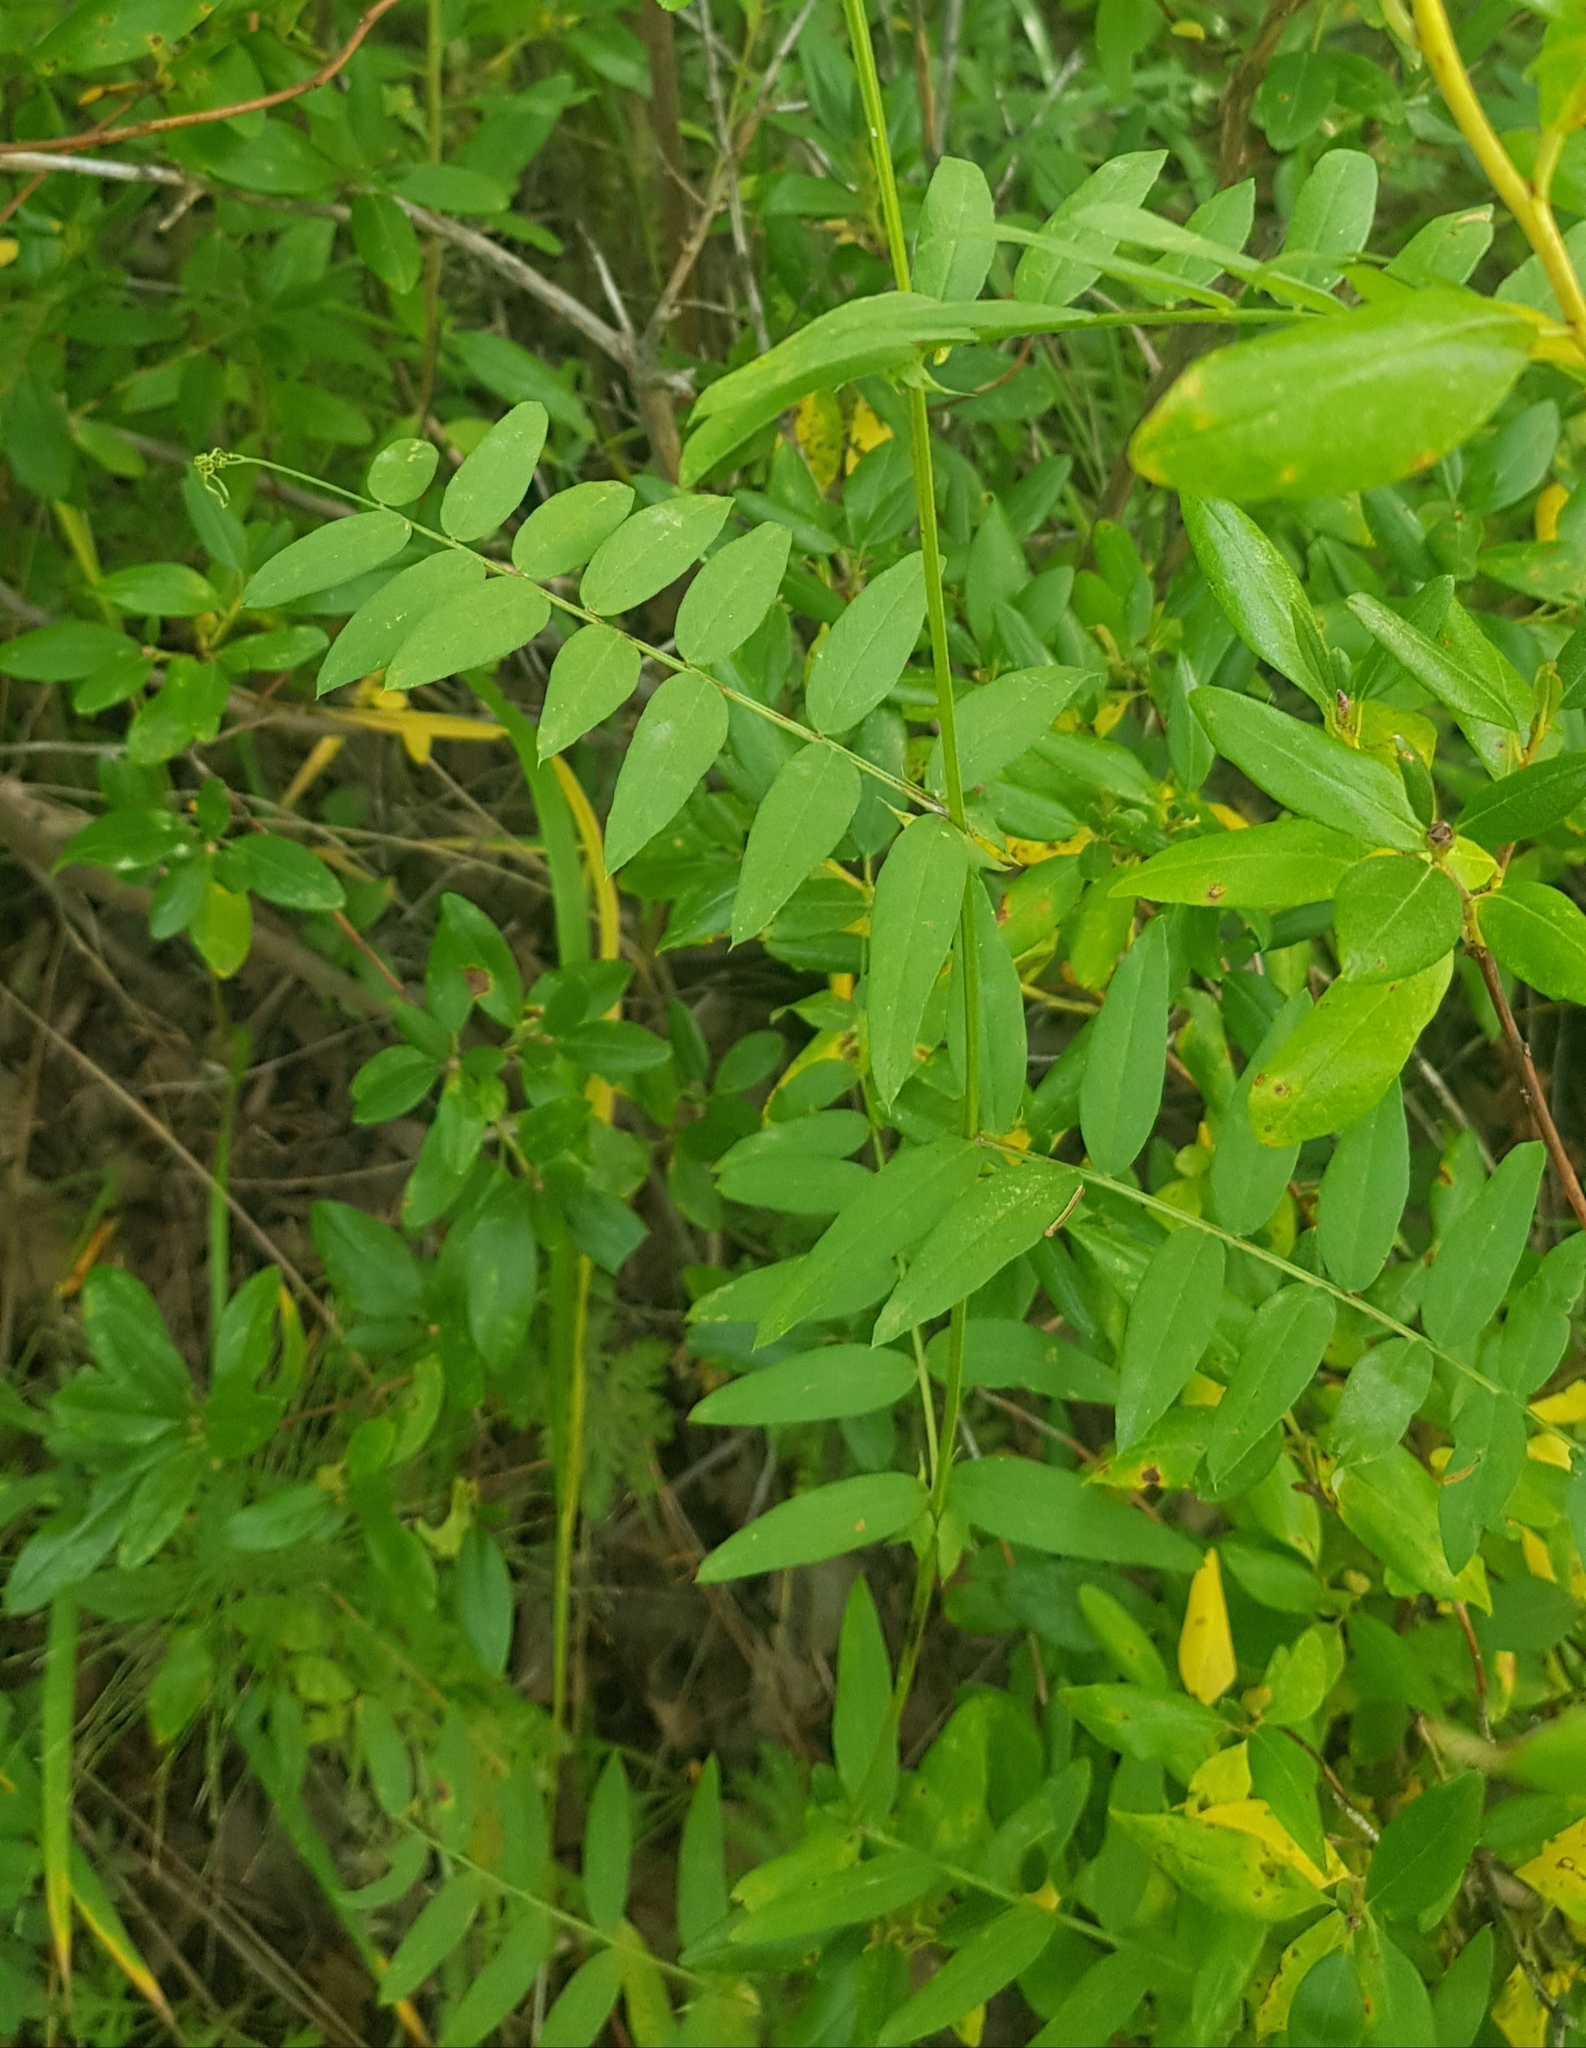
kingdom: Plantae
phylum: Tracheophyta
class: Magnoliopsida
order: Fabales
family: Fabaceae
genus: Vicia
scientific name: Vicia sepium
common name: Bush vetch
